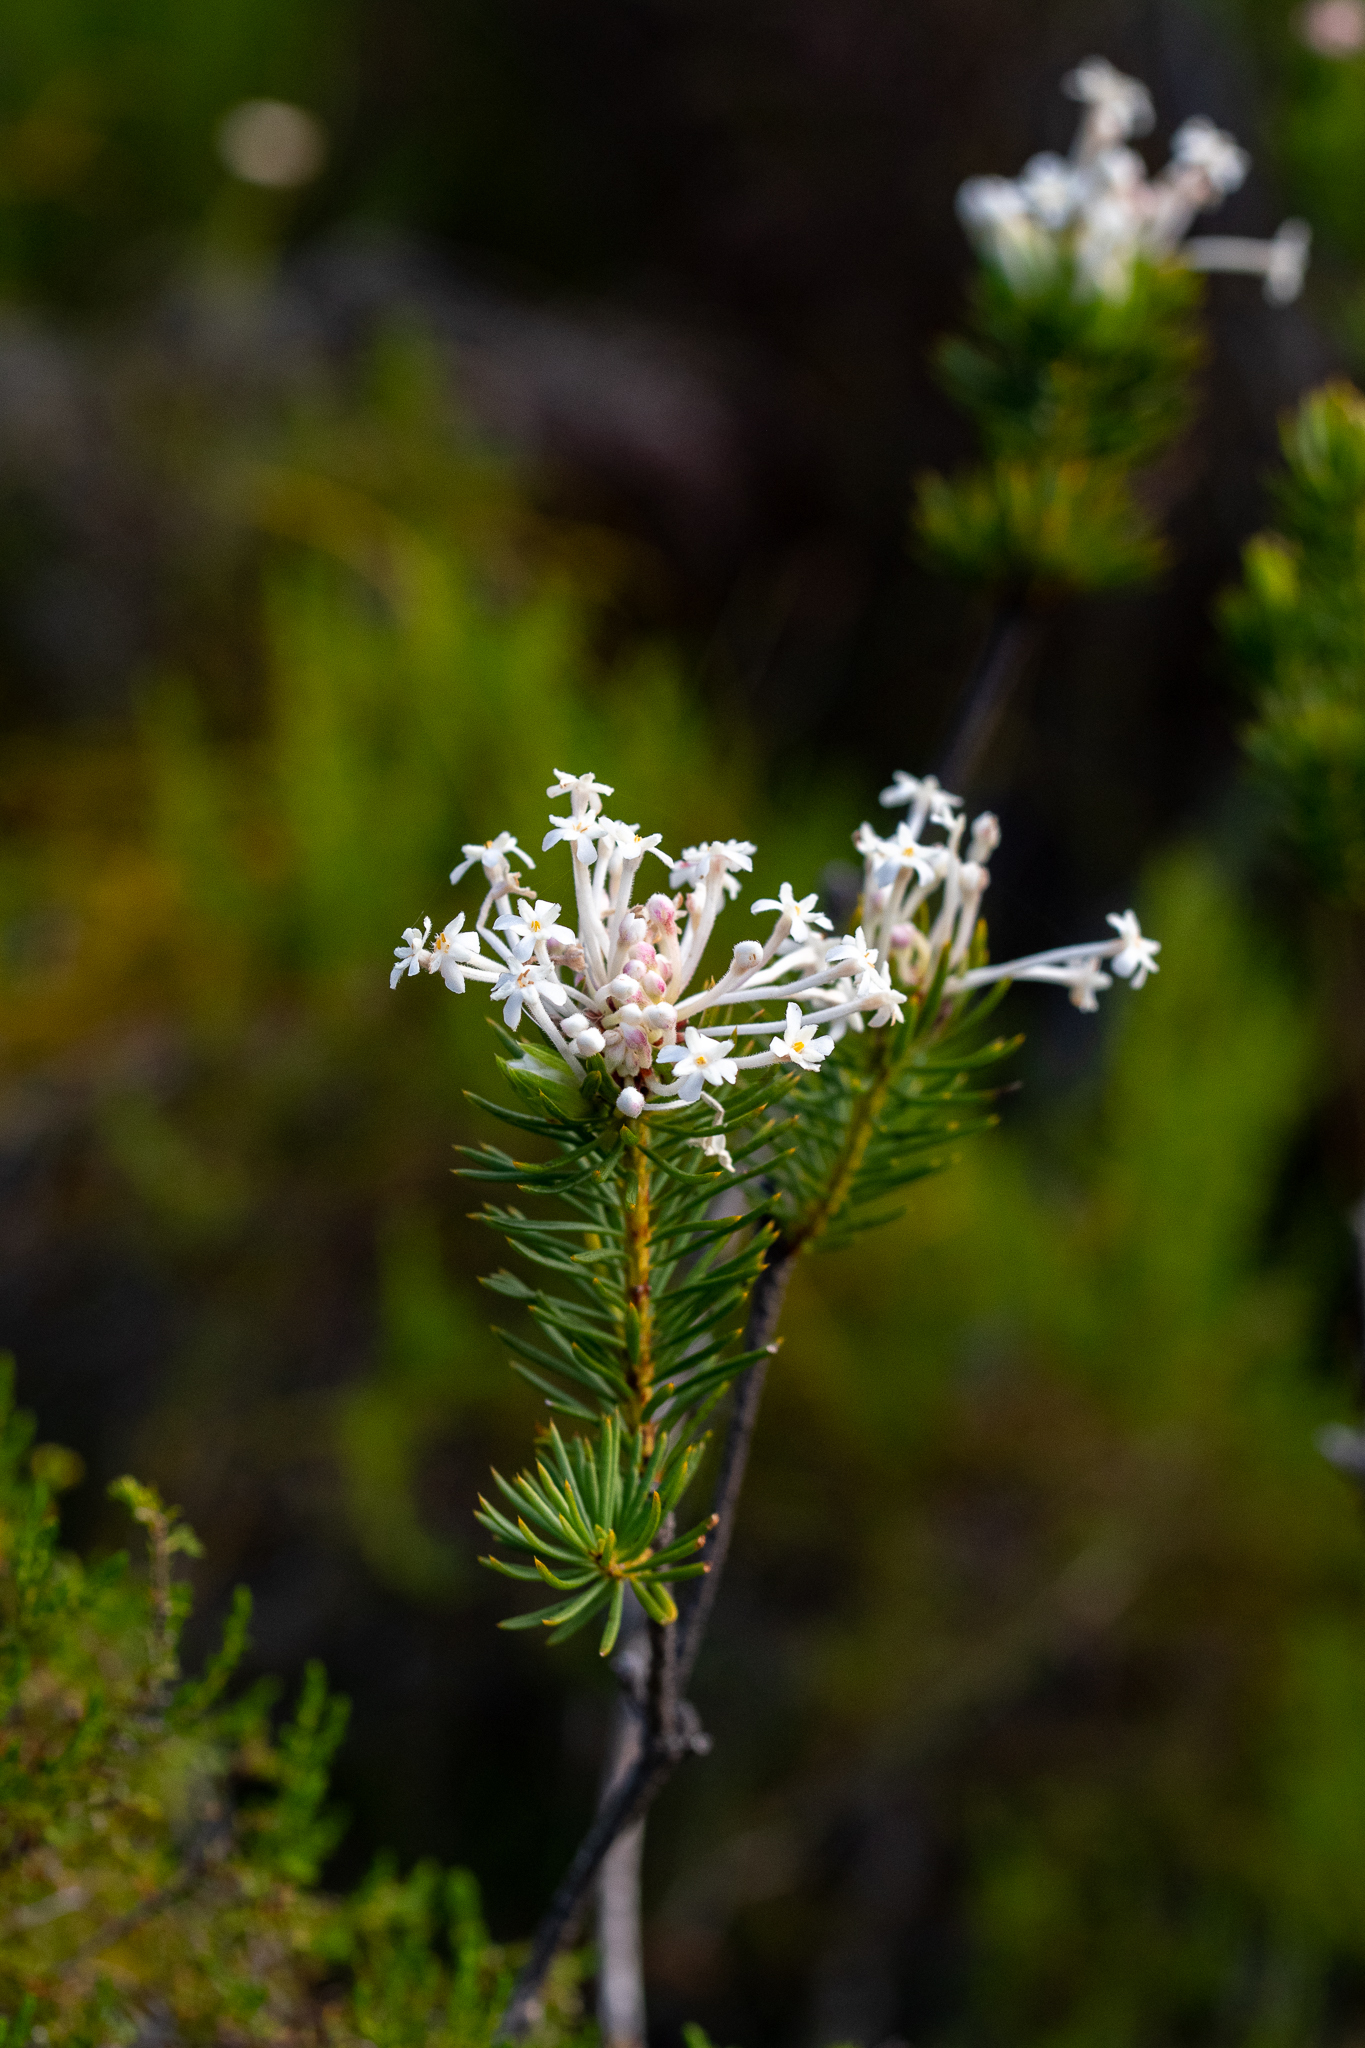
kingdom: Plantae
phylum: Tracheophyta
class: Magnoliopsida
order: Malvales
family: Thymelaeaceae
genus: Gnidia
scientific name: Gnidia pinifolia
